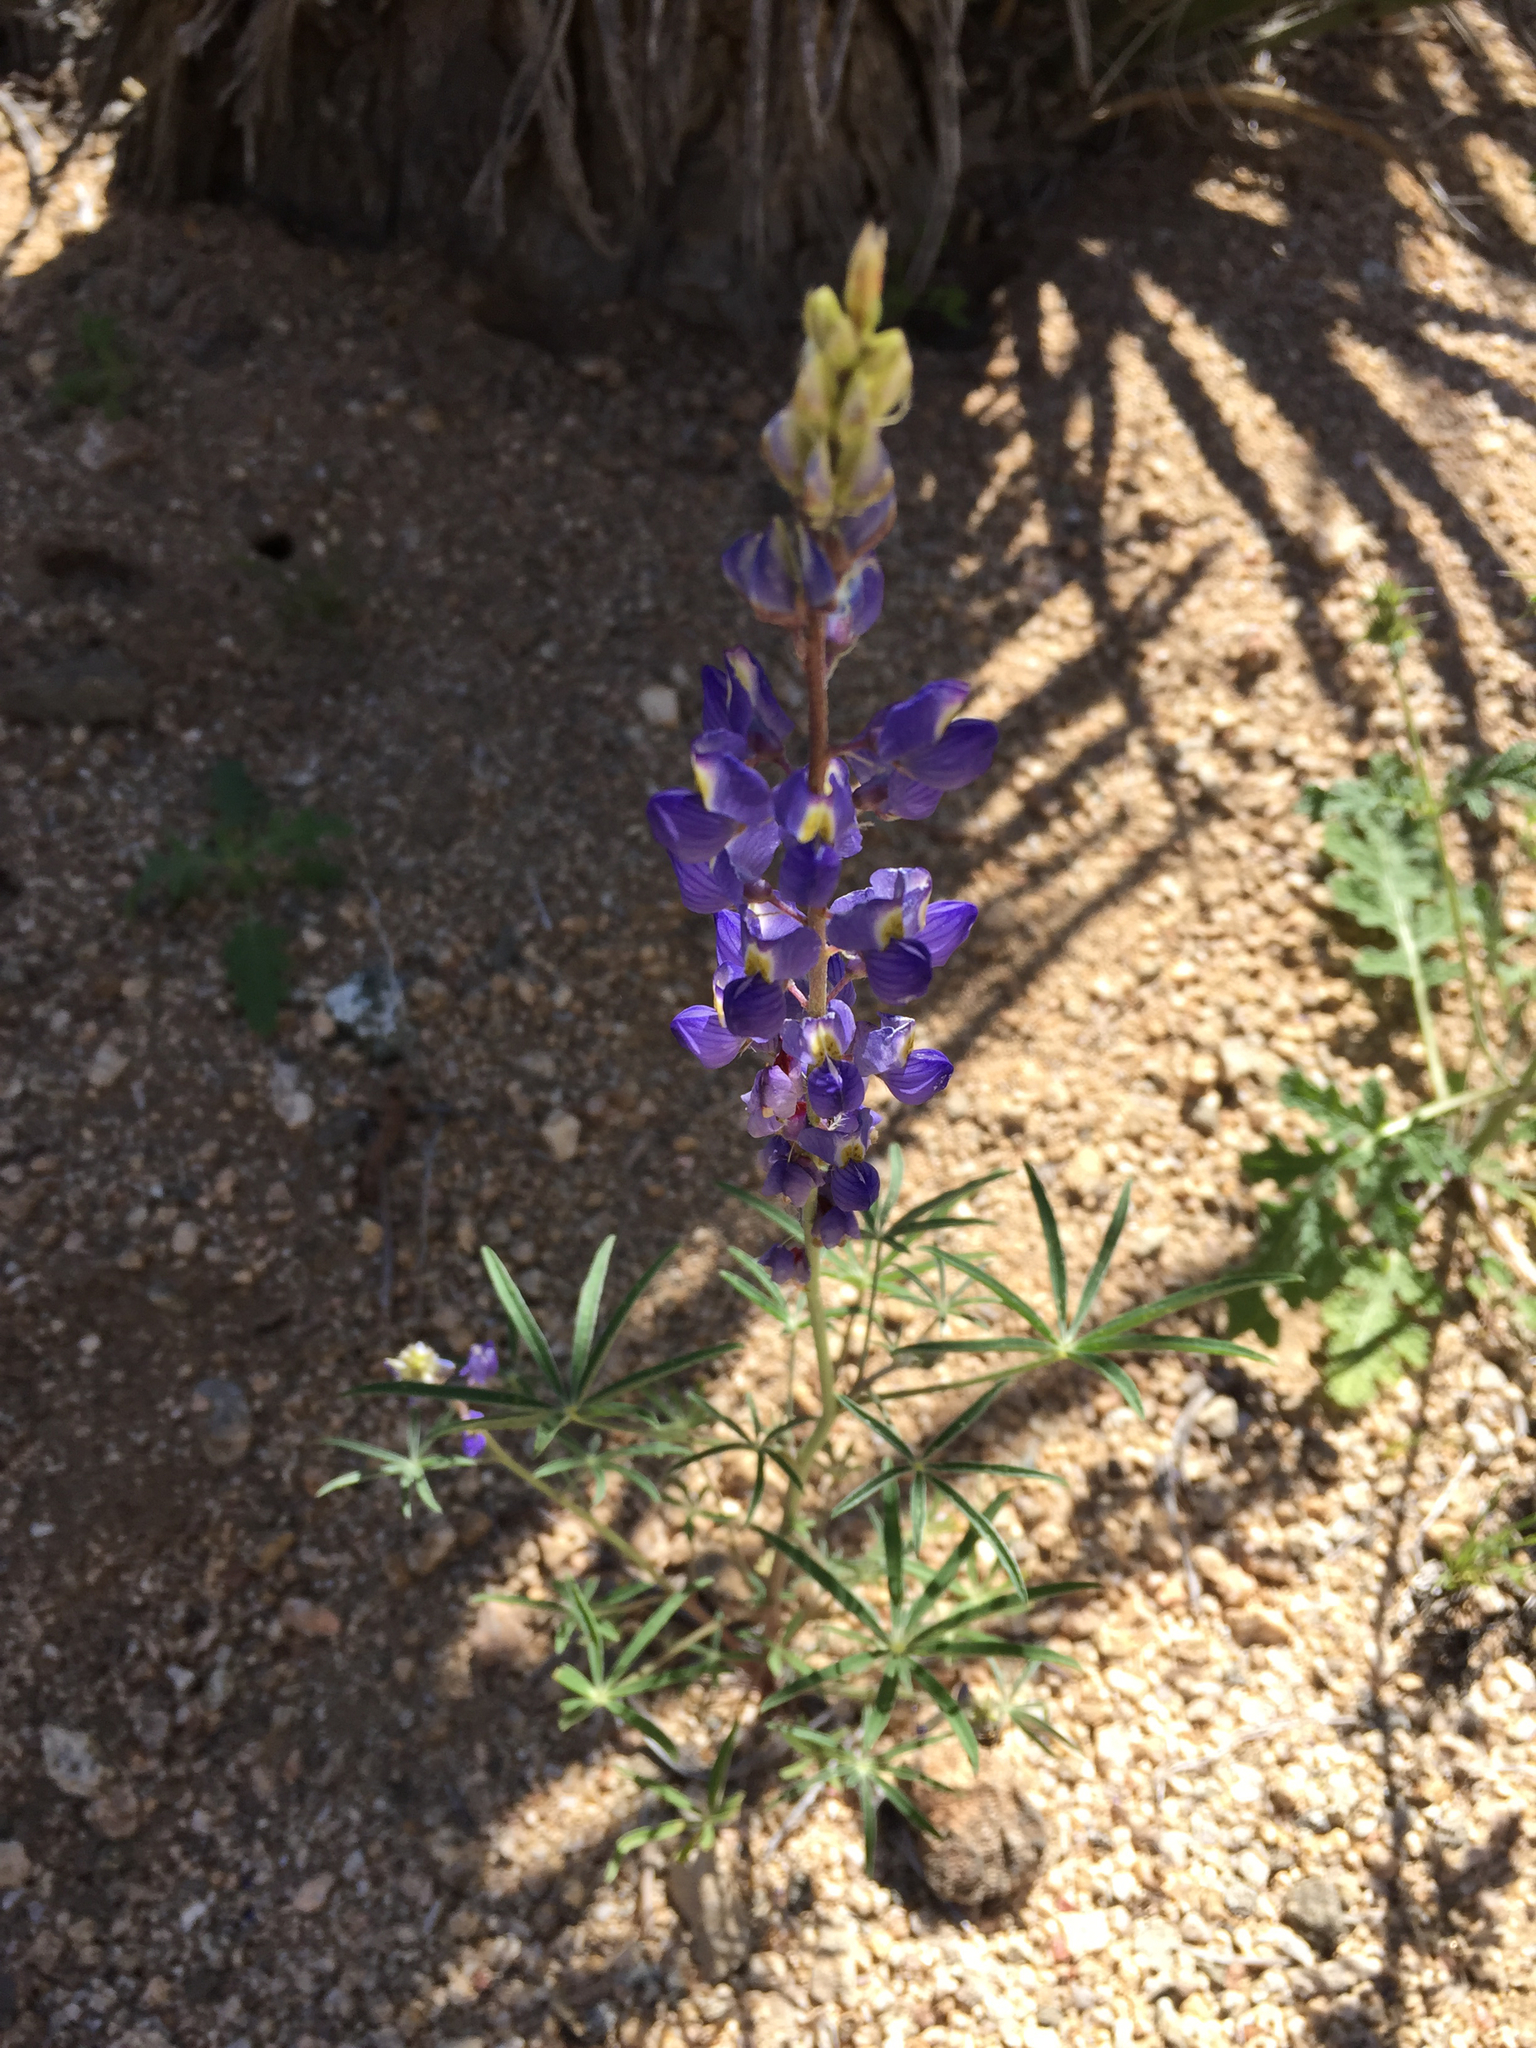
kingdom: Plantae
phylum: Tracheophyta
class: Magnoliopsida
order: Fabales
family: Fabaceae
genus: Lupinus
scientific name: Lupinus sparsiflorus
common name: Coulter's lupine
